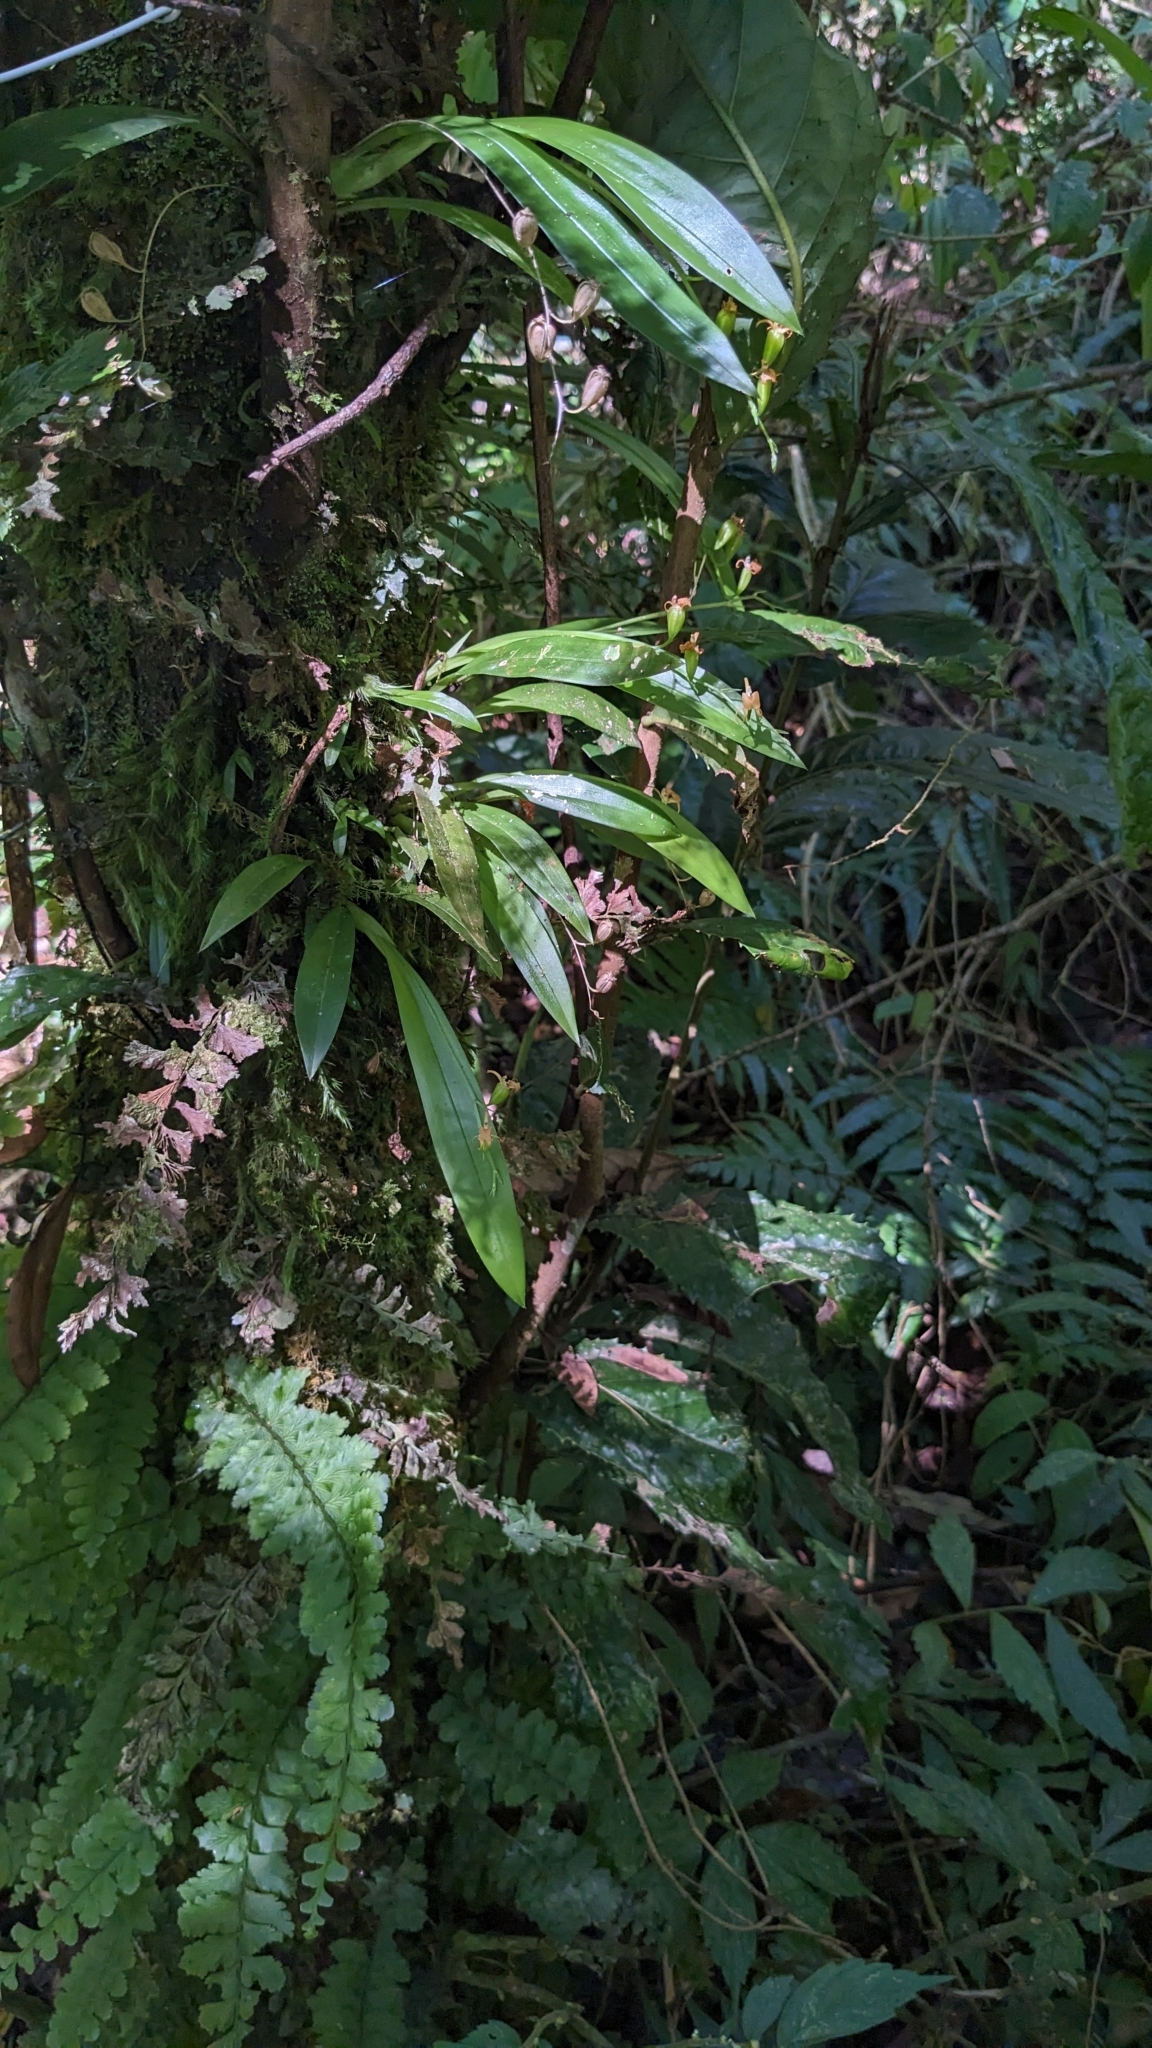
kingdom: Plantae
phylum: Tracheophyta
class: Liliopsida
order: Asparagales
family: Orchidaceae
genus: Liparis
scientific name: Liparis bootanensis
